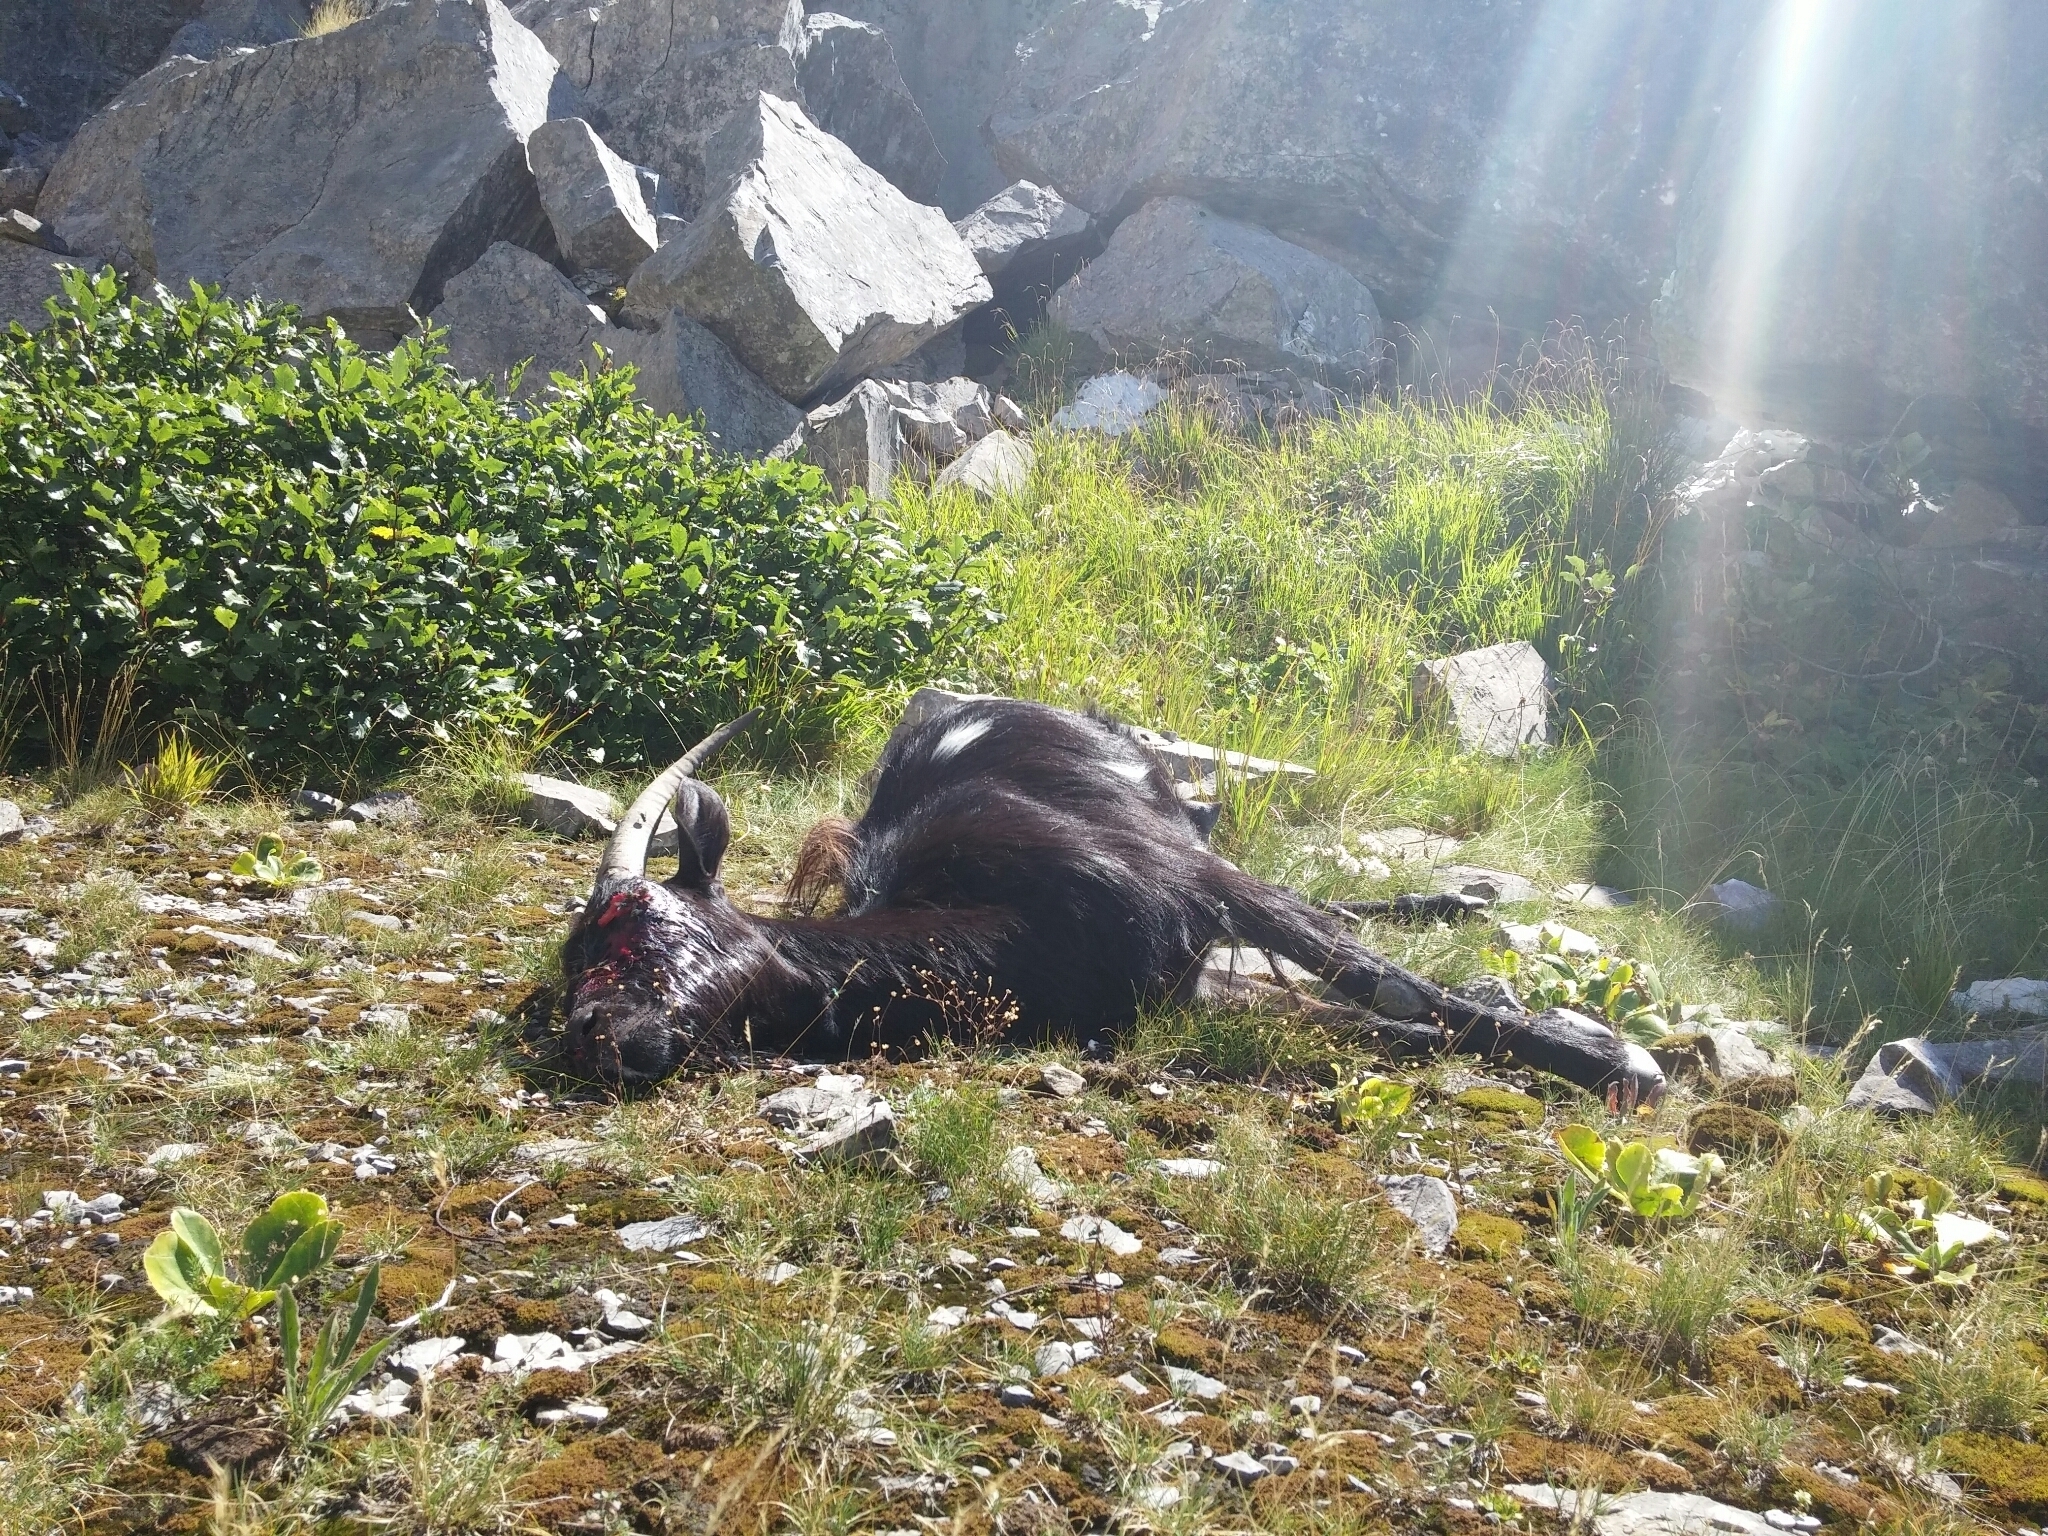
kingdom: Animalia
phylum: Chordata
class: Mammalia
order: Artiodactyla
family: Bovidae
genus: Capra
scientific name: Capra hircus
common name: Domestic goat
